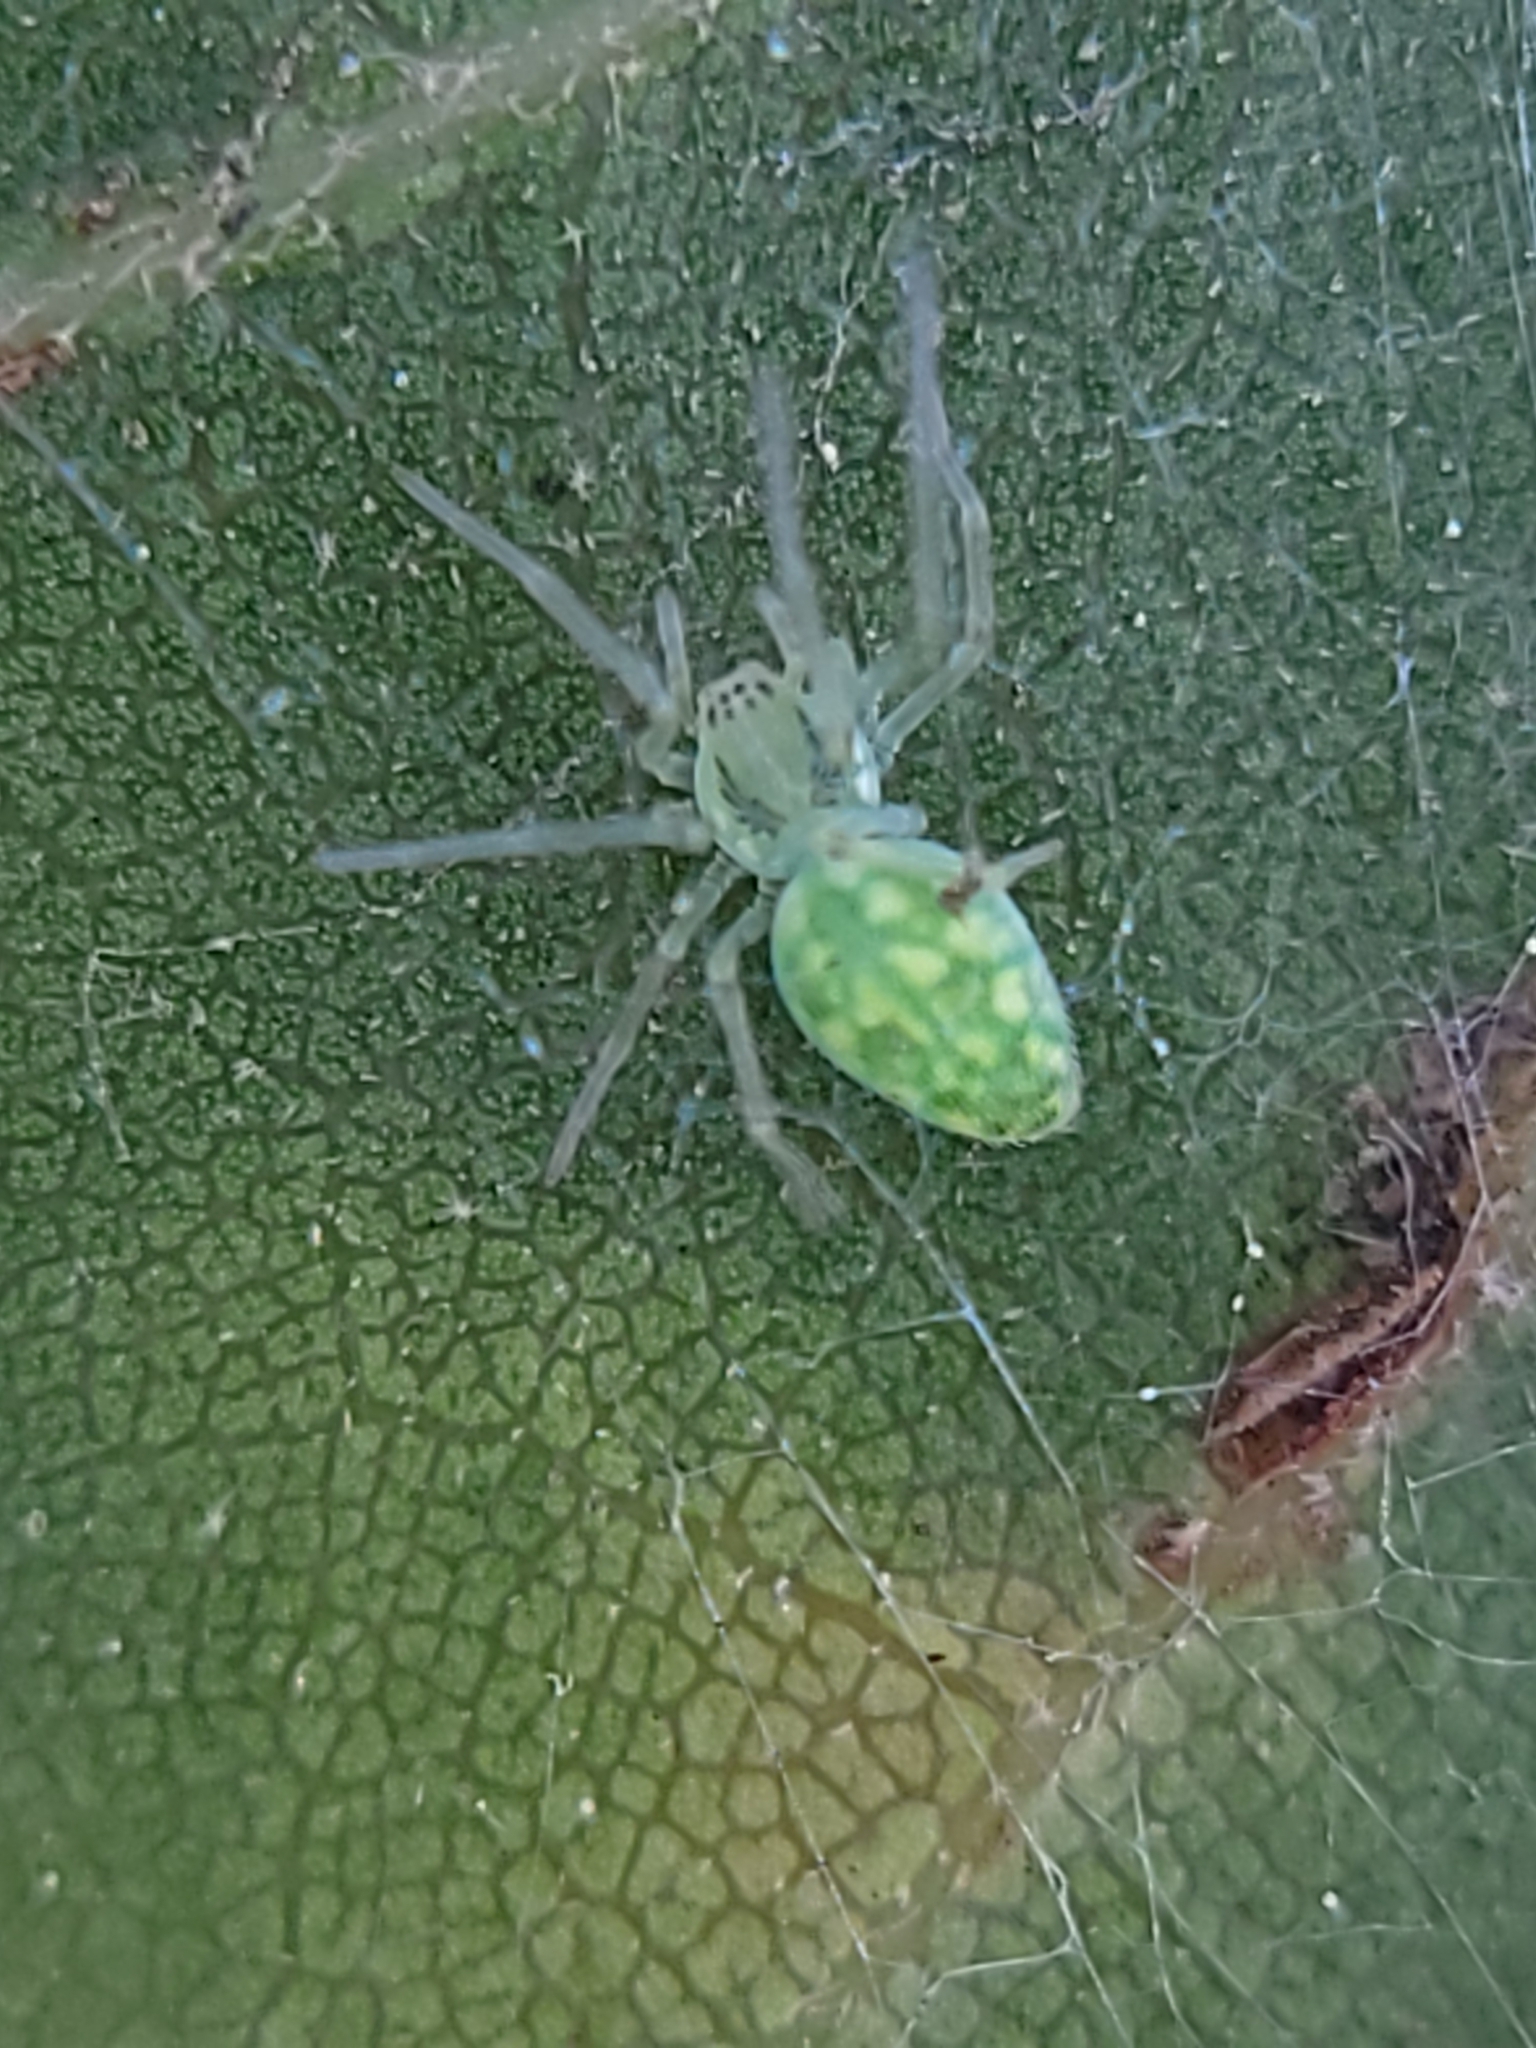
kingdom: Animalia
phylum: Arthropoda
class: Arachnida
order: Araneae
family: Dictynidae
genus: Nigma
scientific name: Nigma linsdalei
